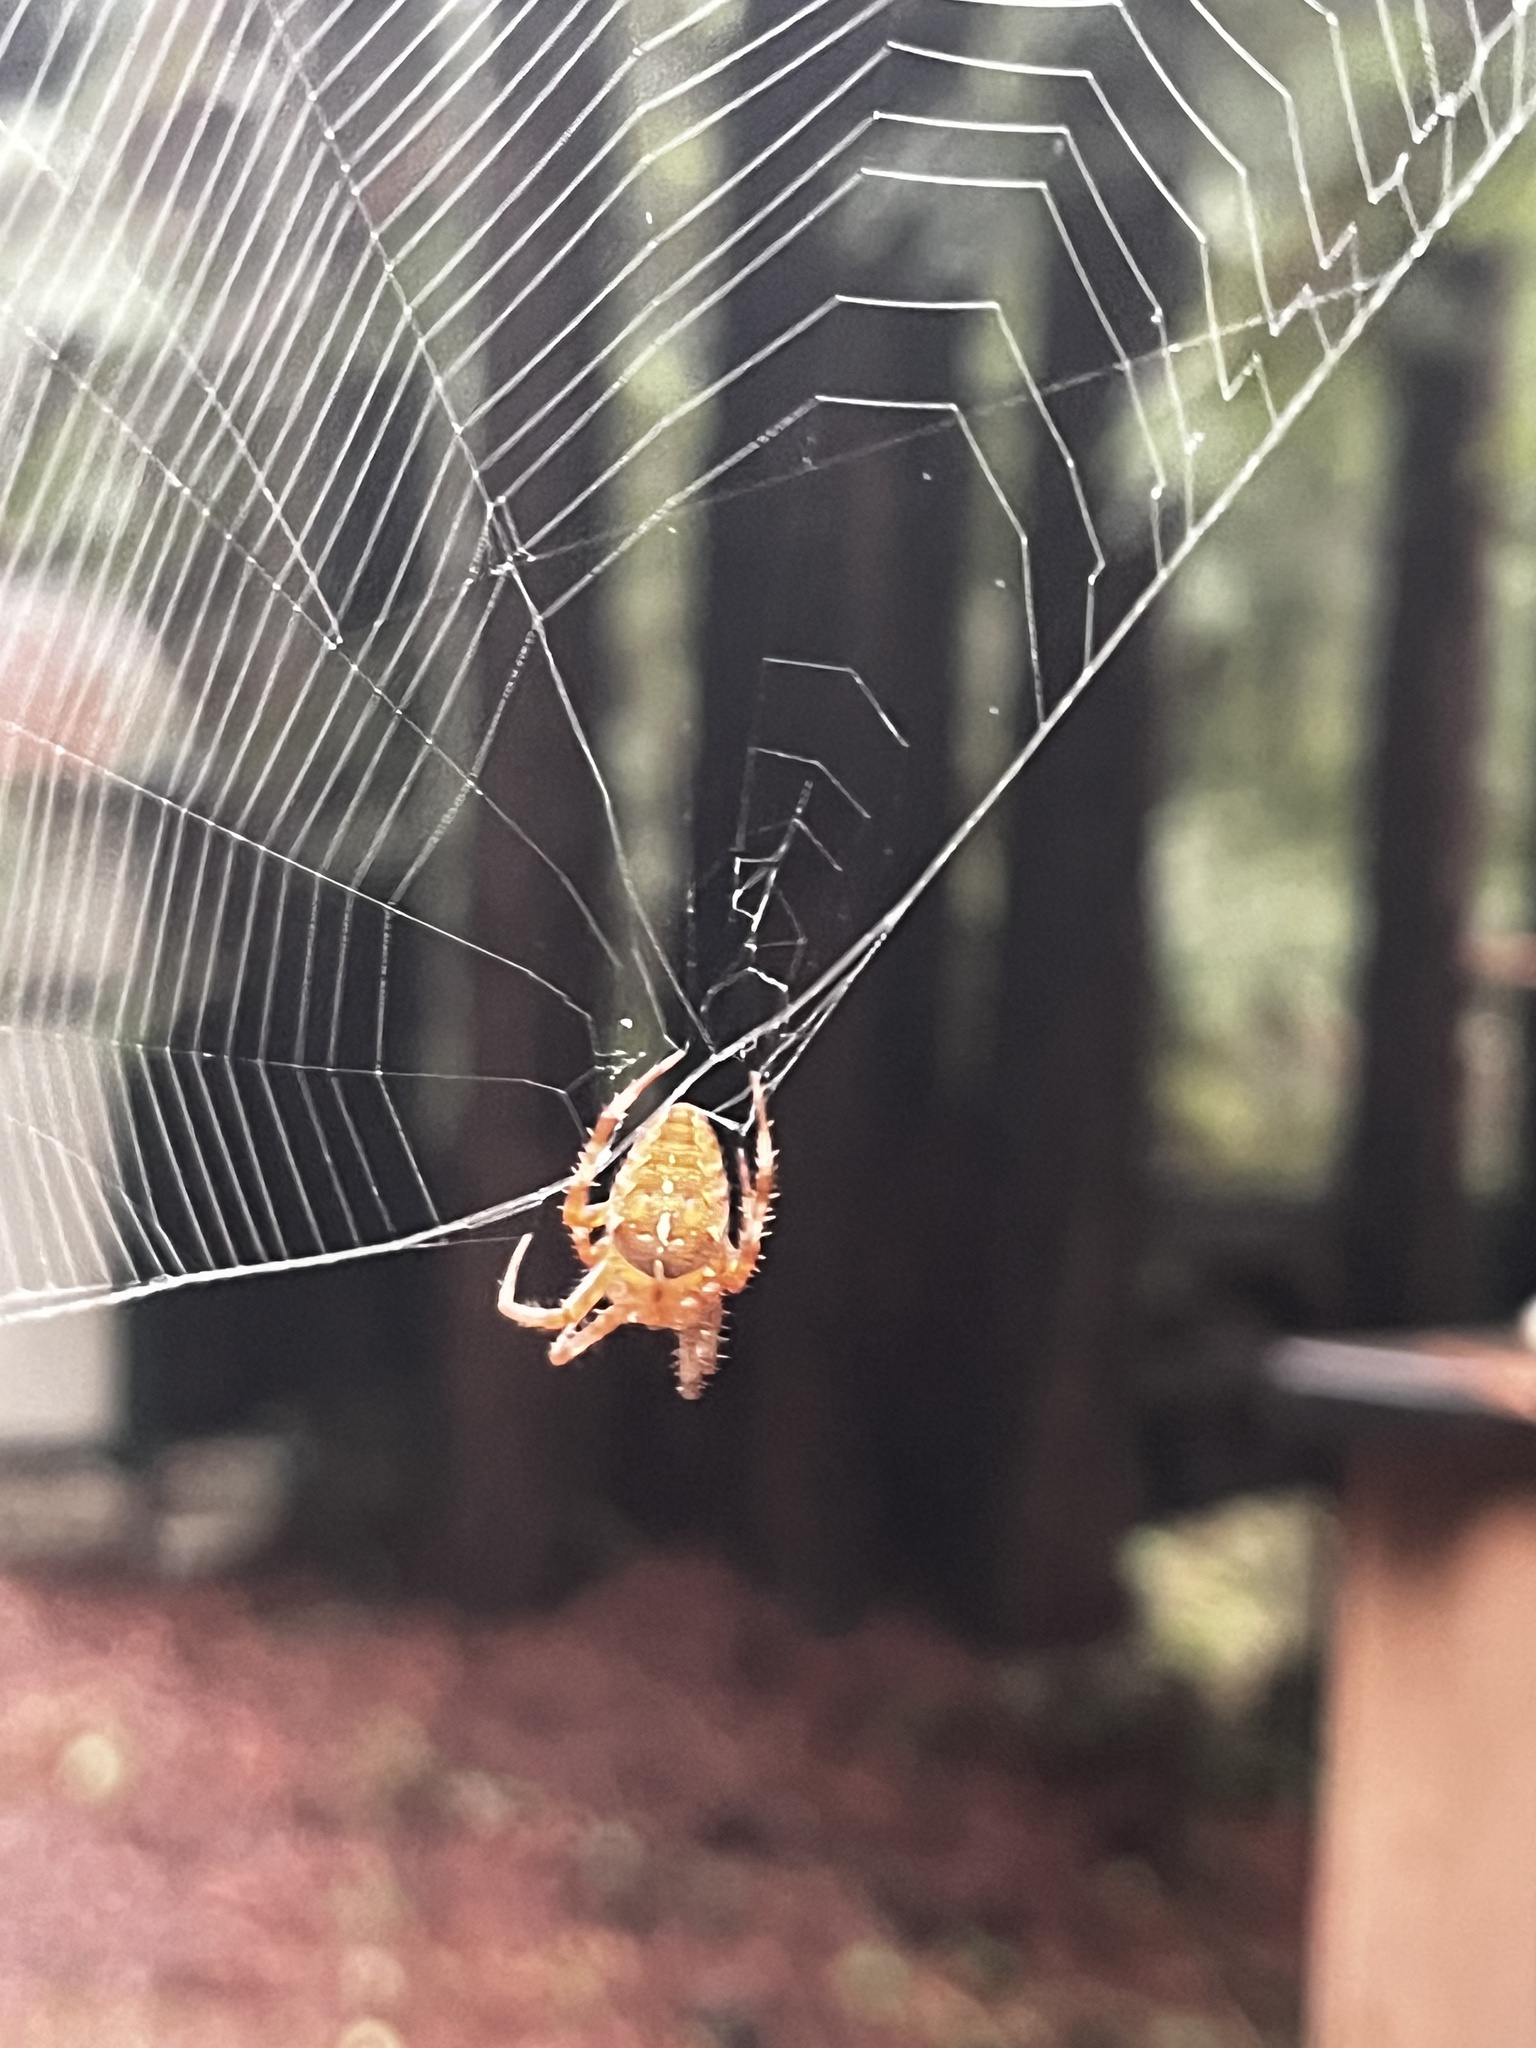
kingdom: Animalia
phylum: Arthropoda
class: Arachnida
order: Araneae
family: Araneidae
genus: Araneus
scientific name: Araneus diadematus
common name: Cross orbweaver
